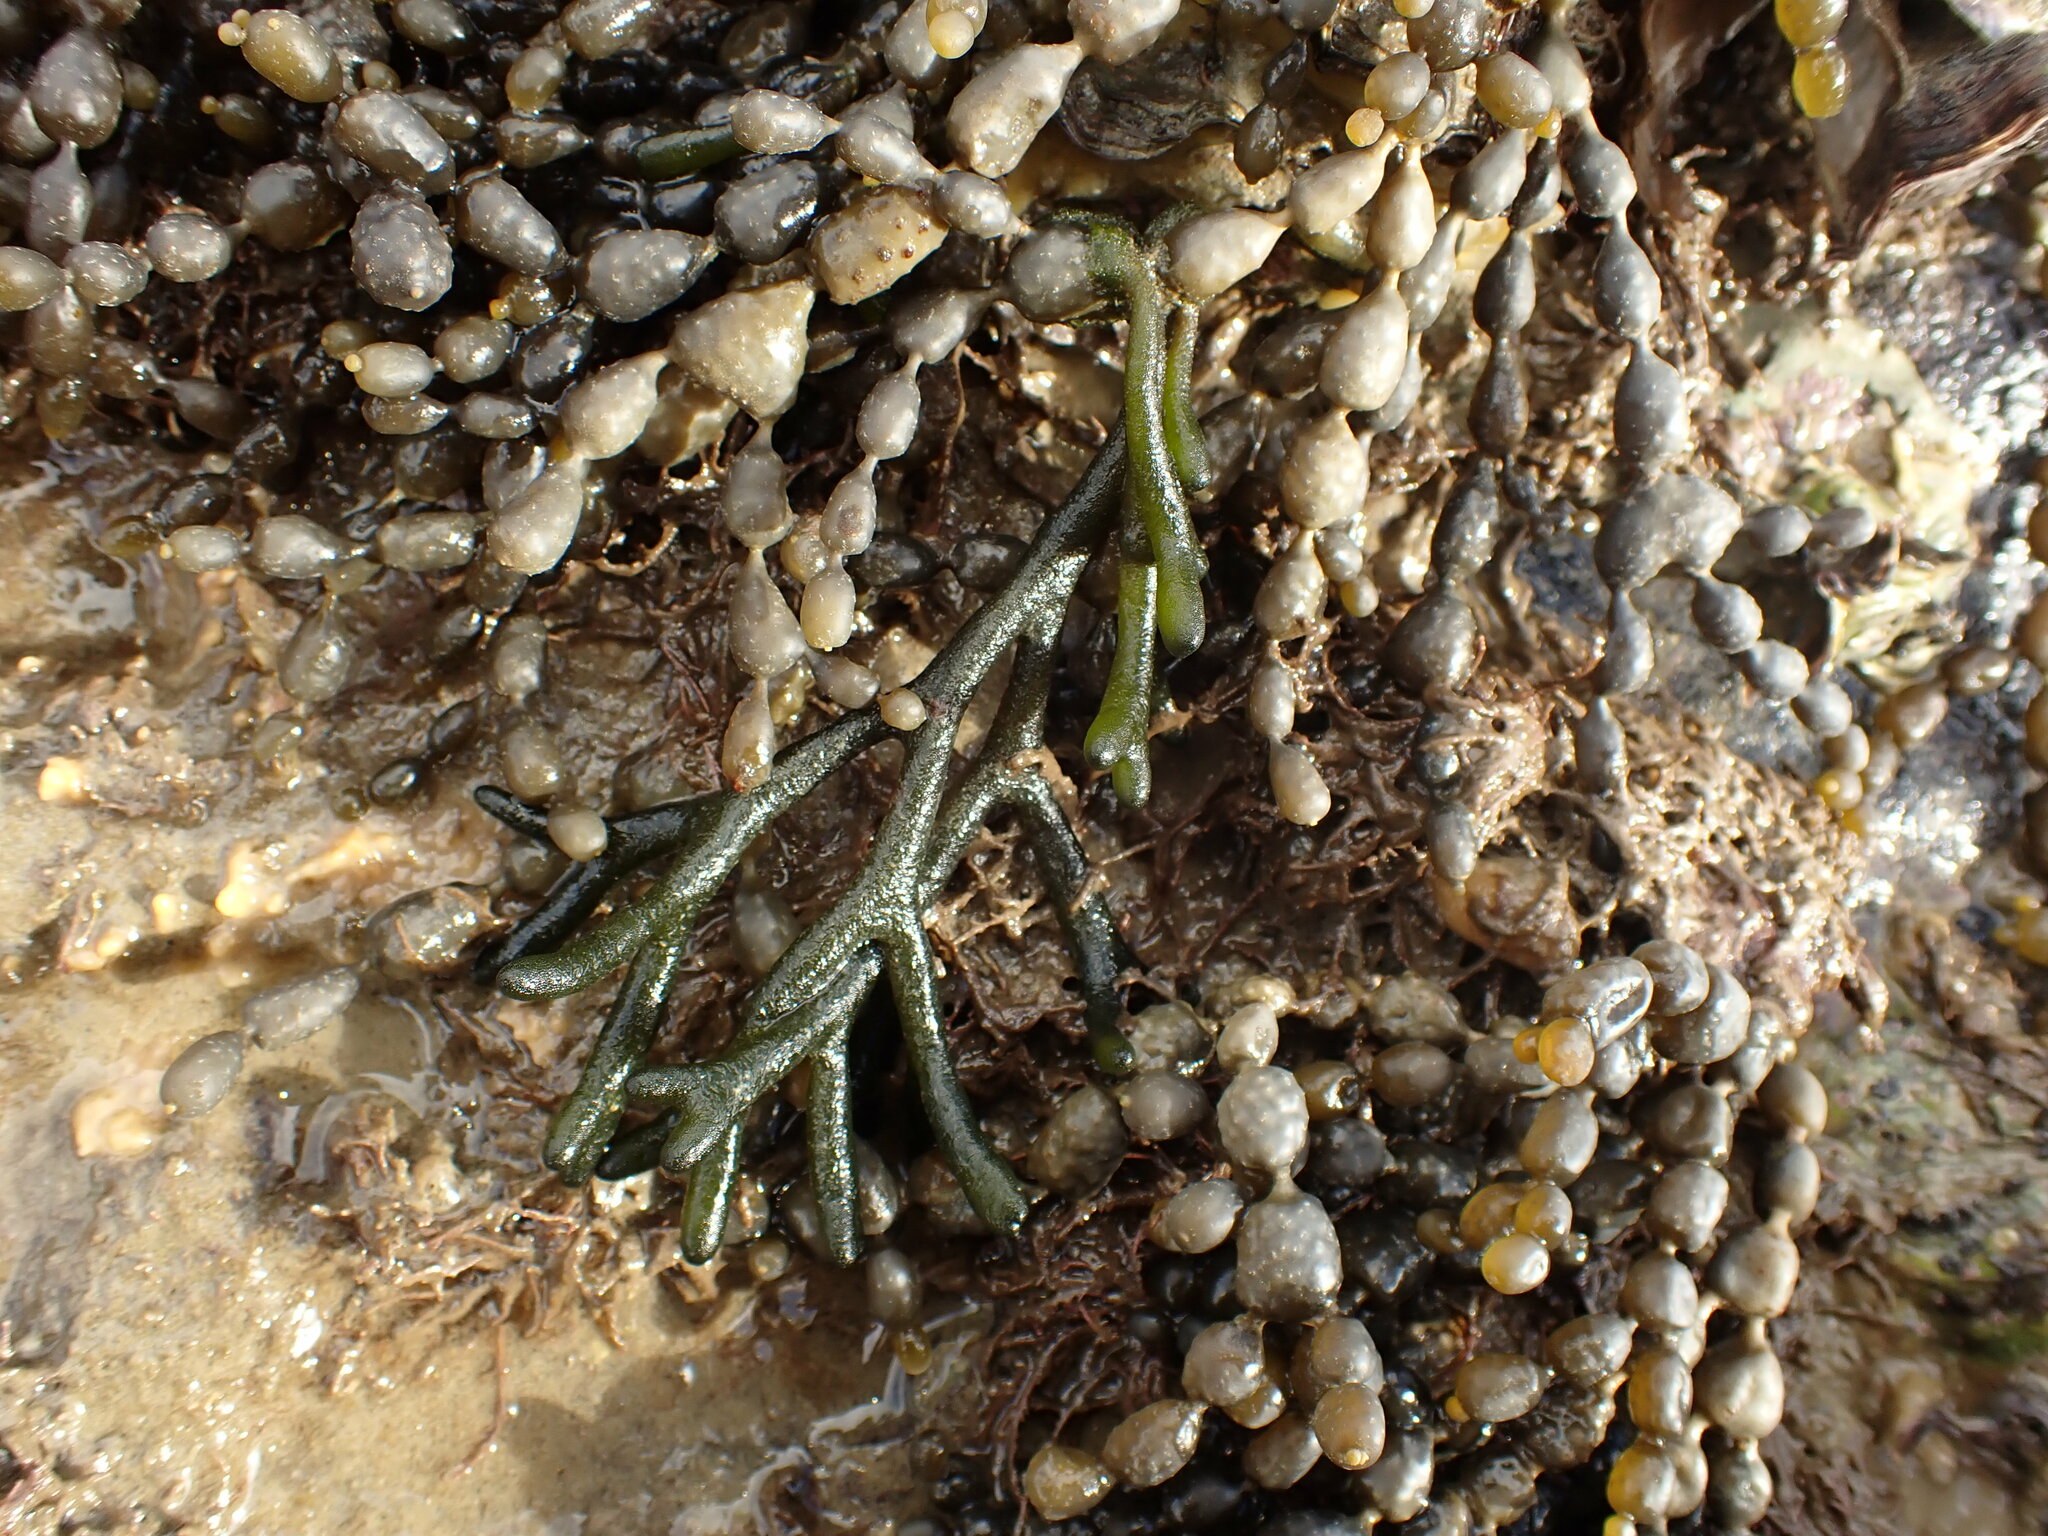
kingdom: Plantae
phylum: Chlorophyta
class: Ulvophyceae
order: Bryopsidales
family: Codiaceae
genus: Codium
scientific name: Codium fragile
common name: Dead man's fingers
